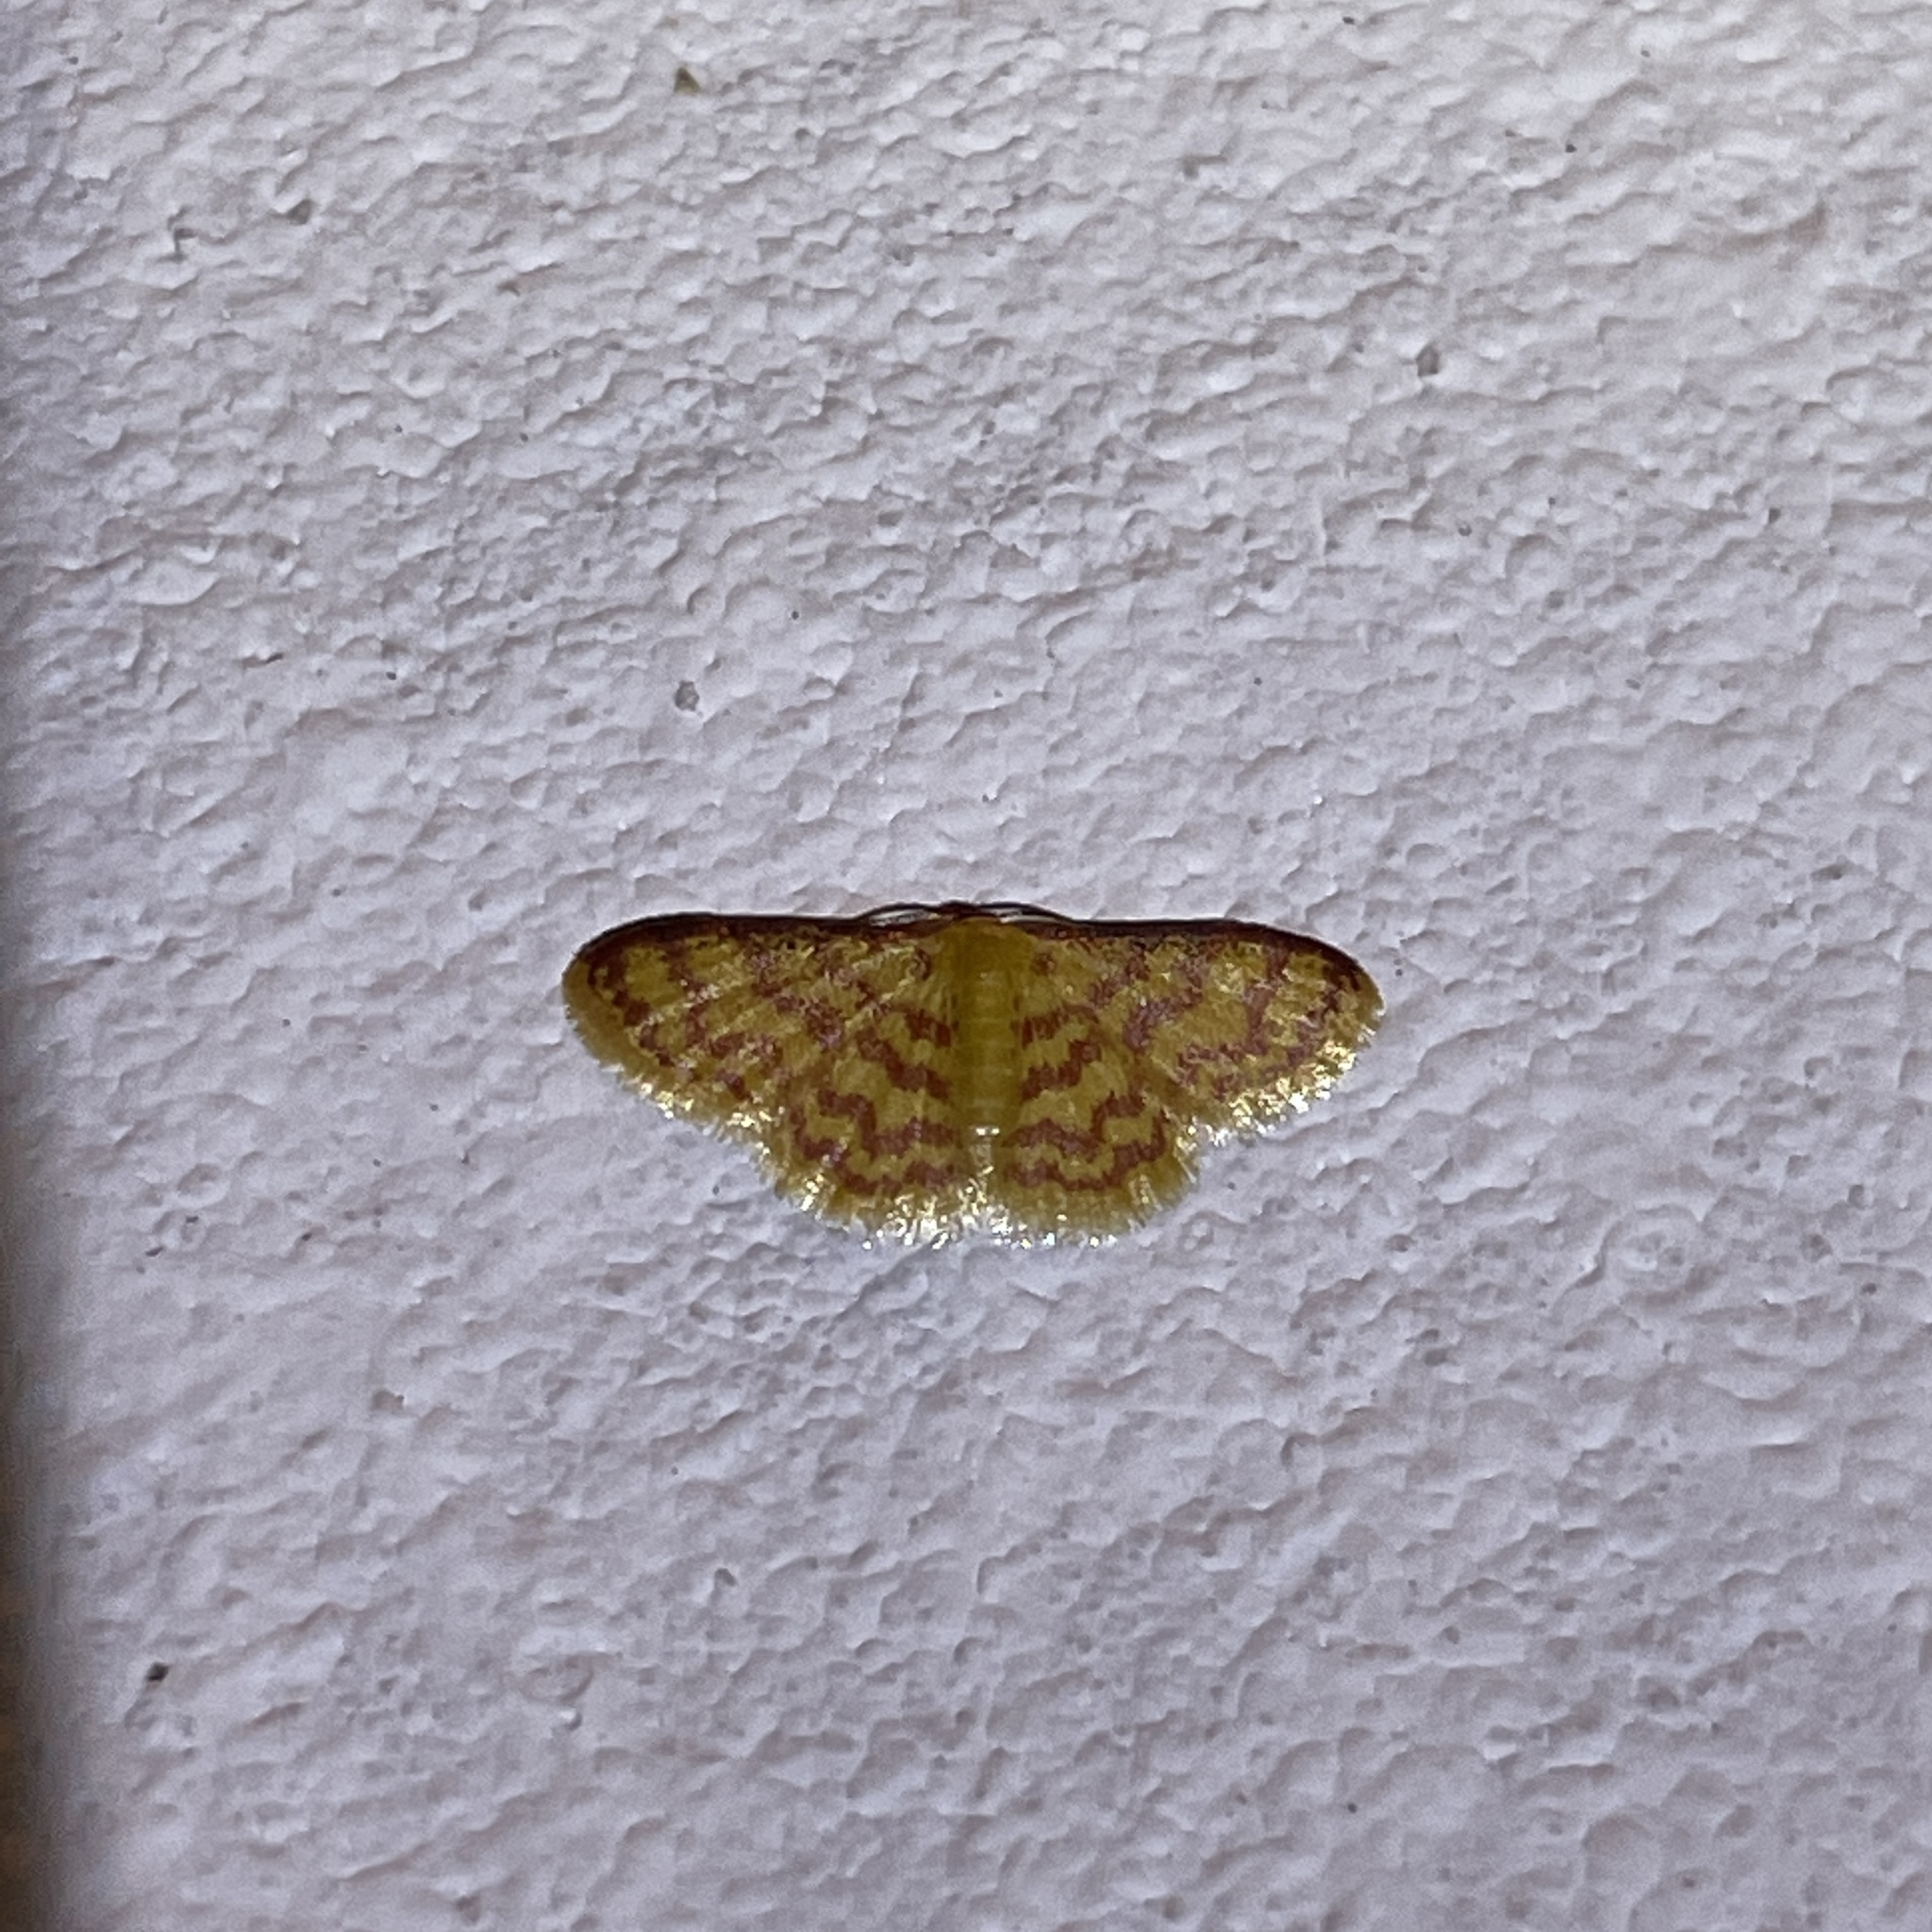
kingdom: Animalia
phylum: Arthropoda
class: Insecta
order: Lepidoptera
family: Geometridae
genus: Tricentrogyna
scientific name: Tricentrogyna deportata
